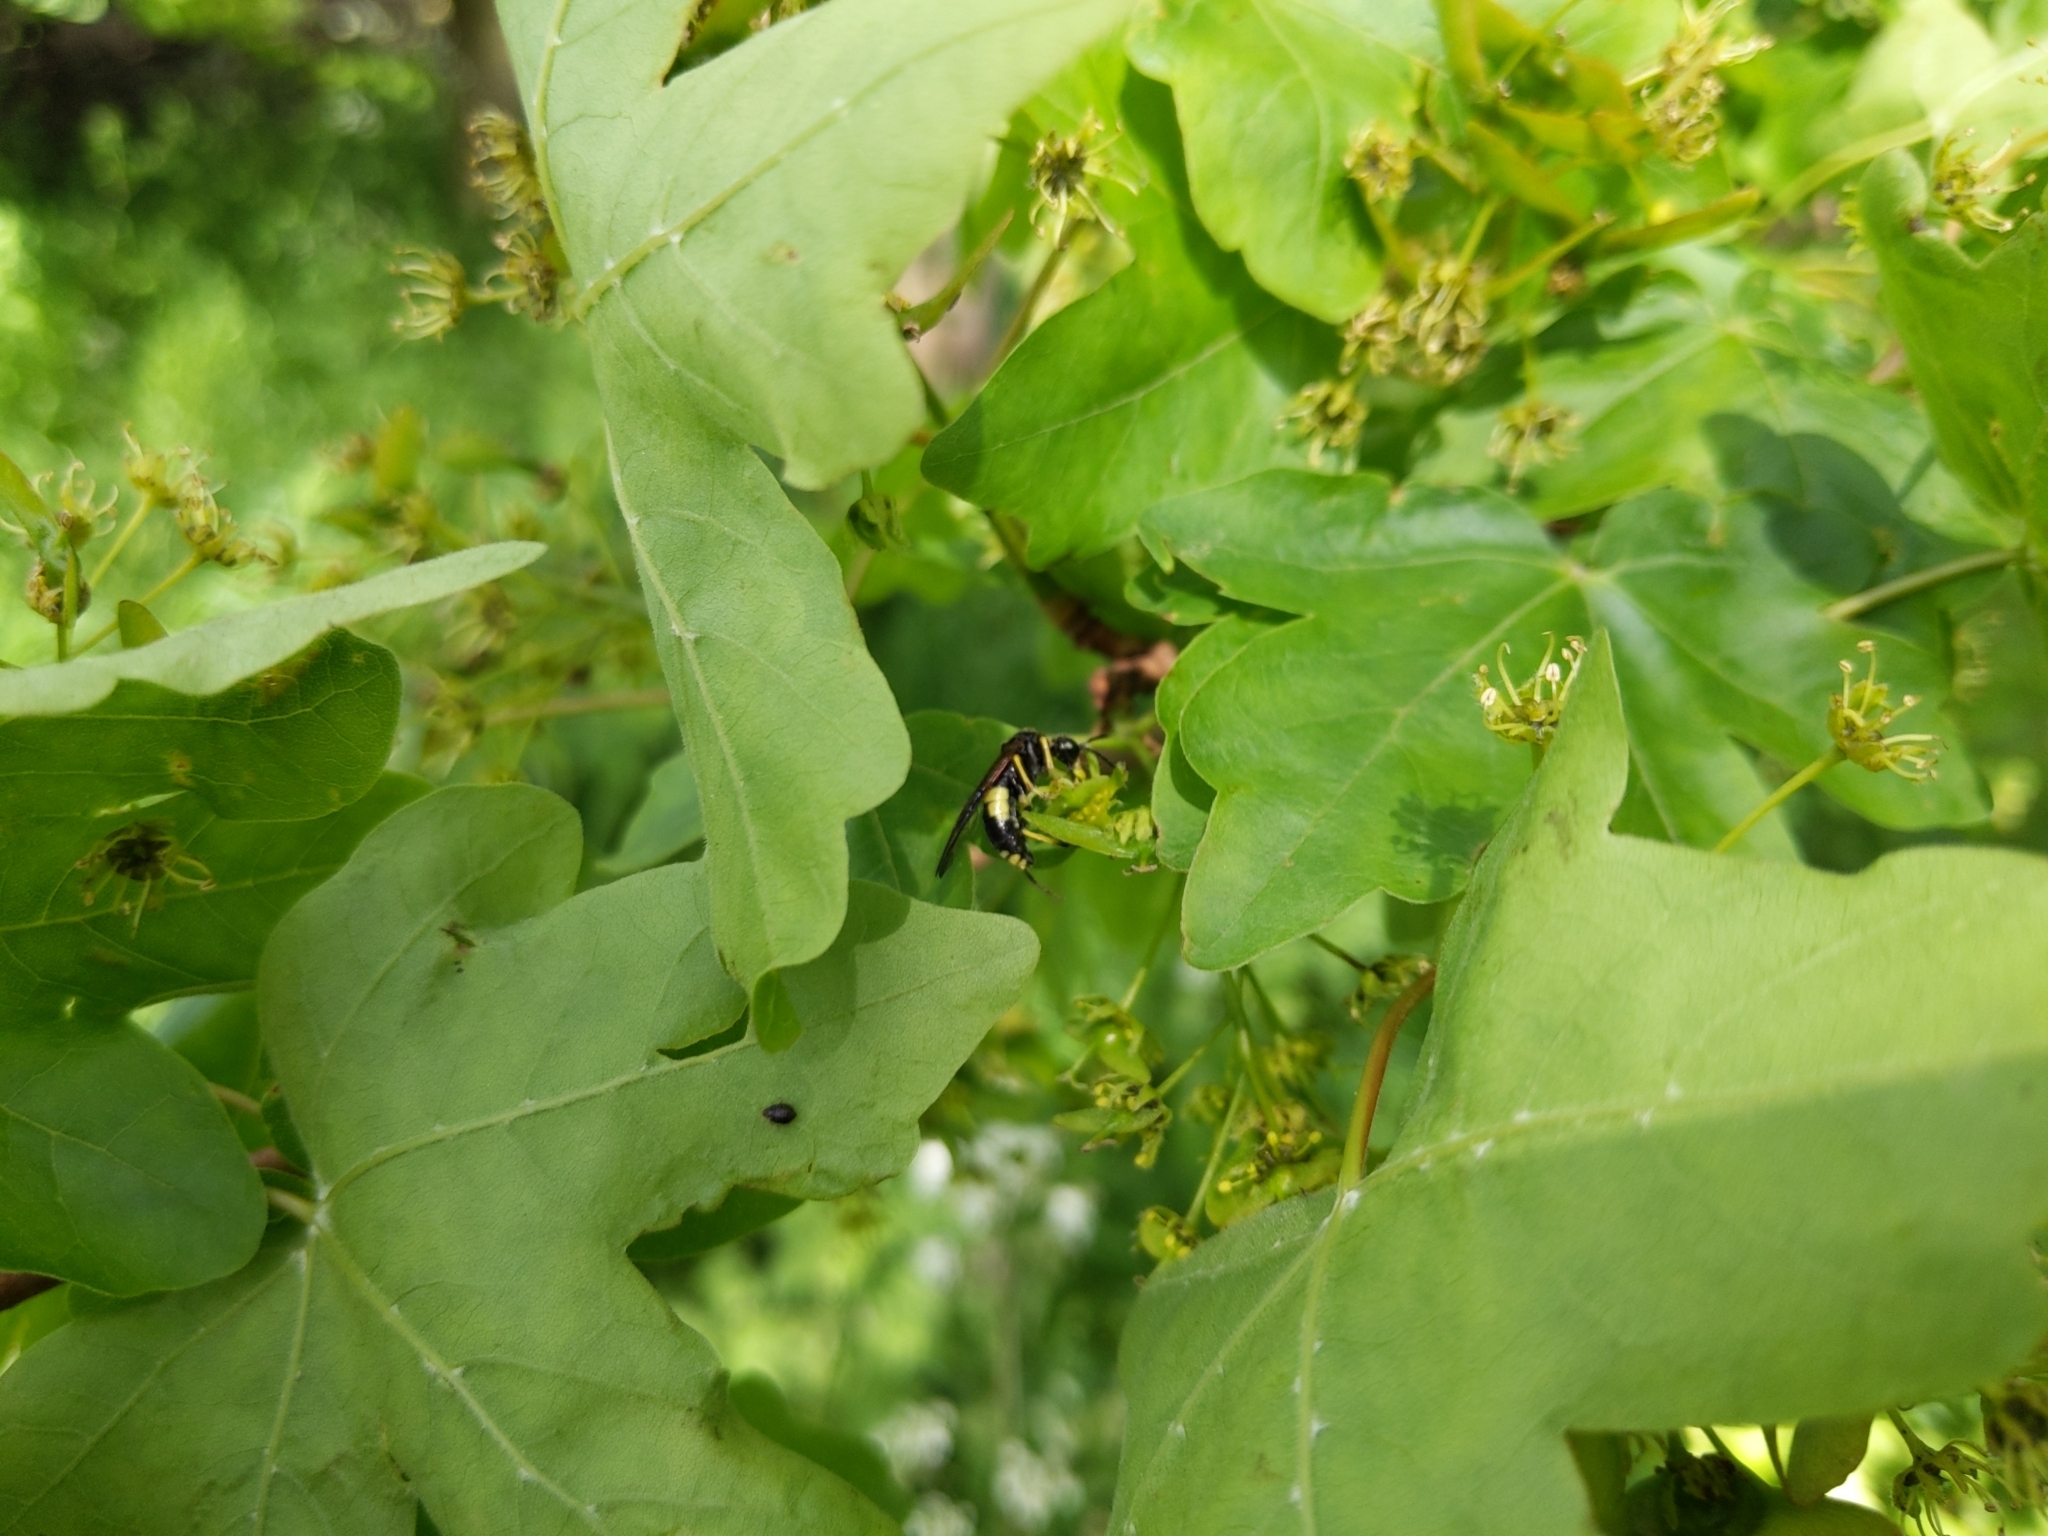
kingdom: Animalia
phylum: Arthropoda
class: Insecta
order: Hymenoptera
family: Tenthredinidae
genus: Tenthredo
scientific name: Tenthredo temula
